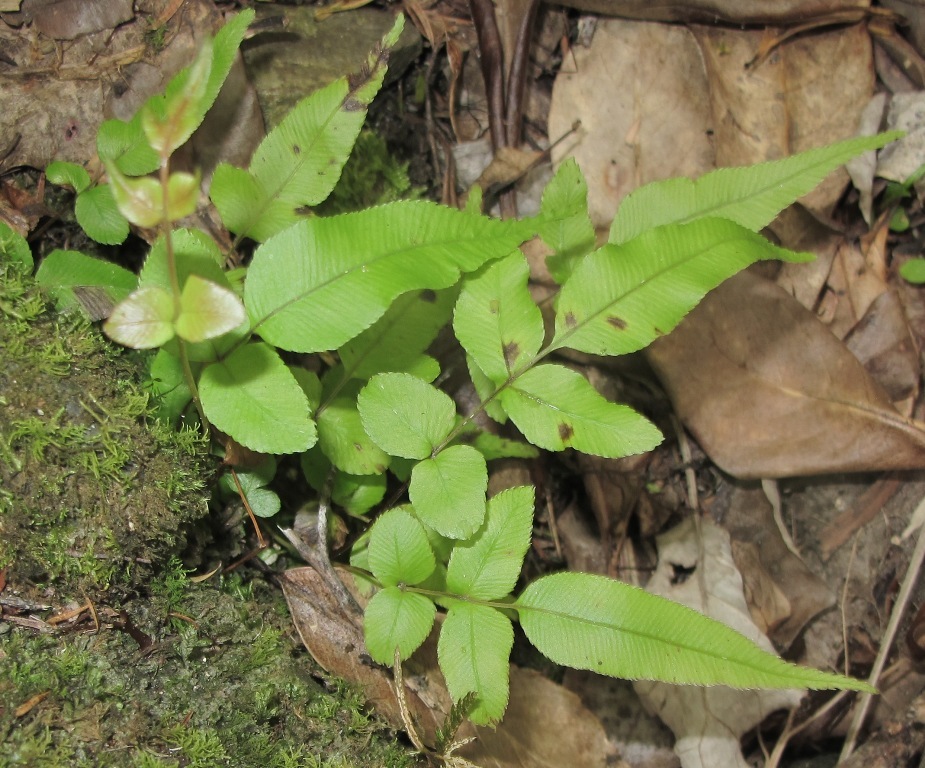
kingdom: Plantae
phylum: Tracheophyta
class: Polypodiopsida
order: Polypodiales
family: Blechnaceae
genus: Parablechnum
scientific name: Parablechnum procerum
